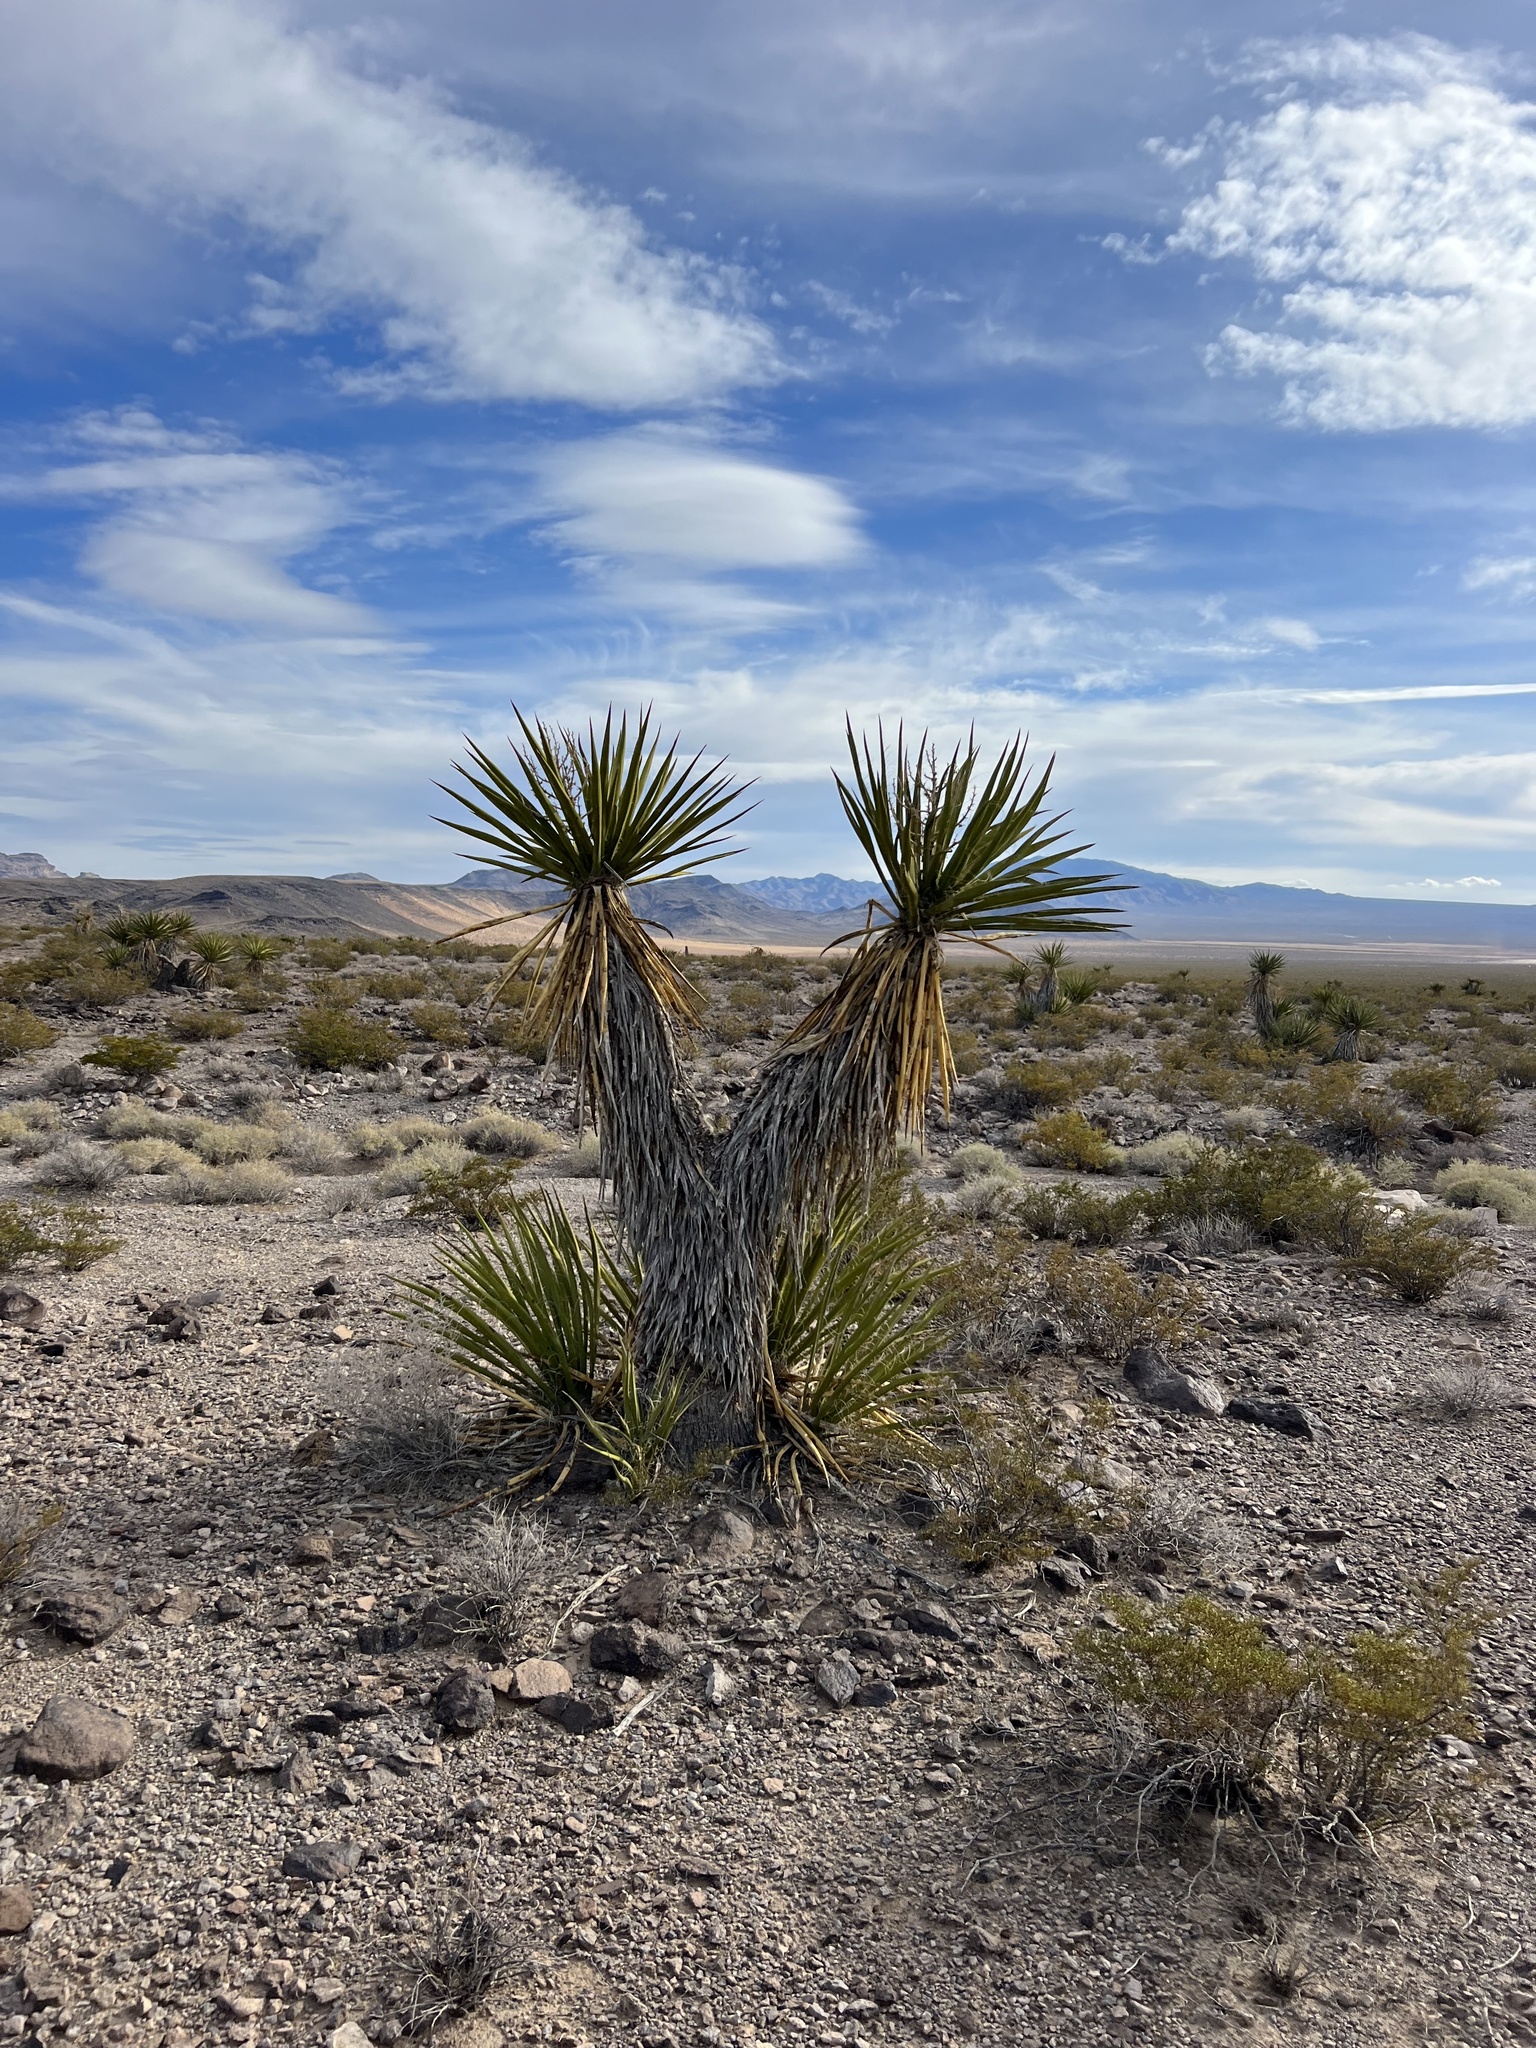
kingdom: Plantae
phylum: Tracheophyta
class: Liliopsida
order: Asparagales
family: Asparagaceae
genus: Yucca
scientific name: Yucca schidigera
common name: Mojave yucca
